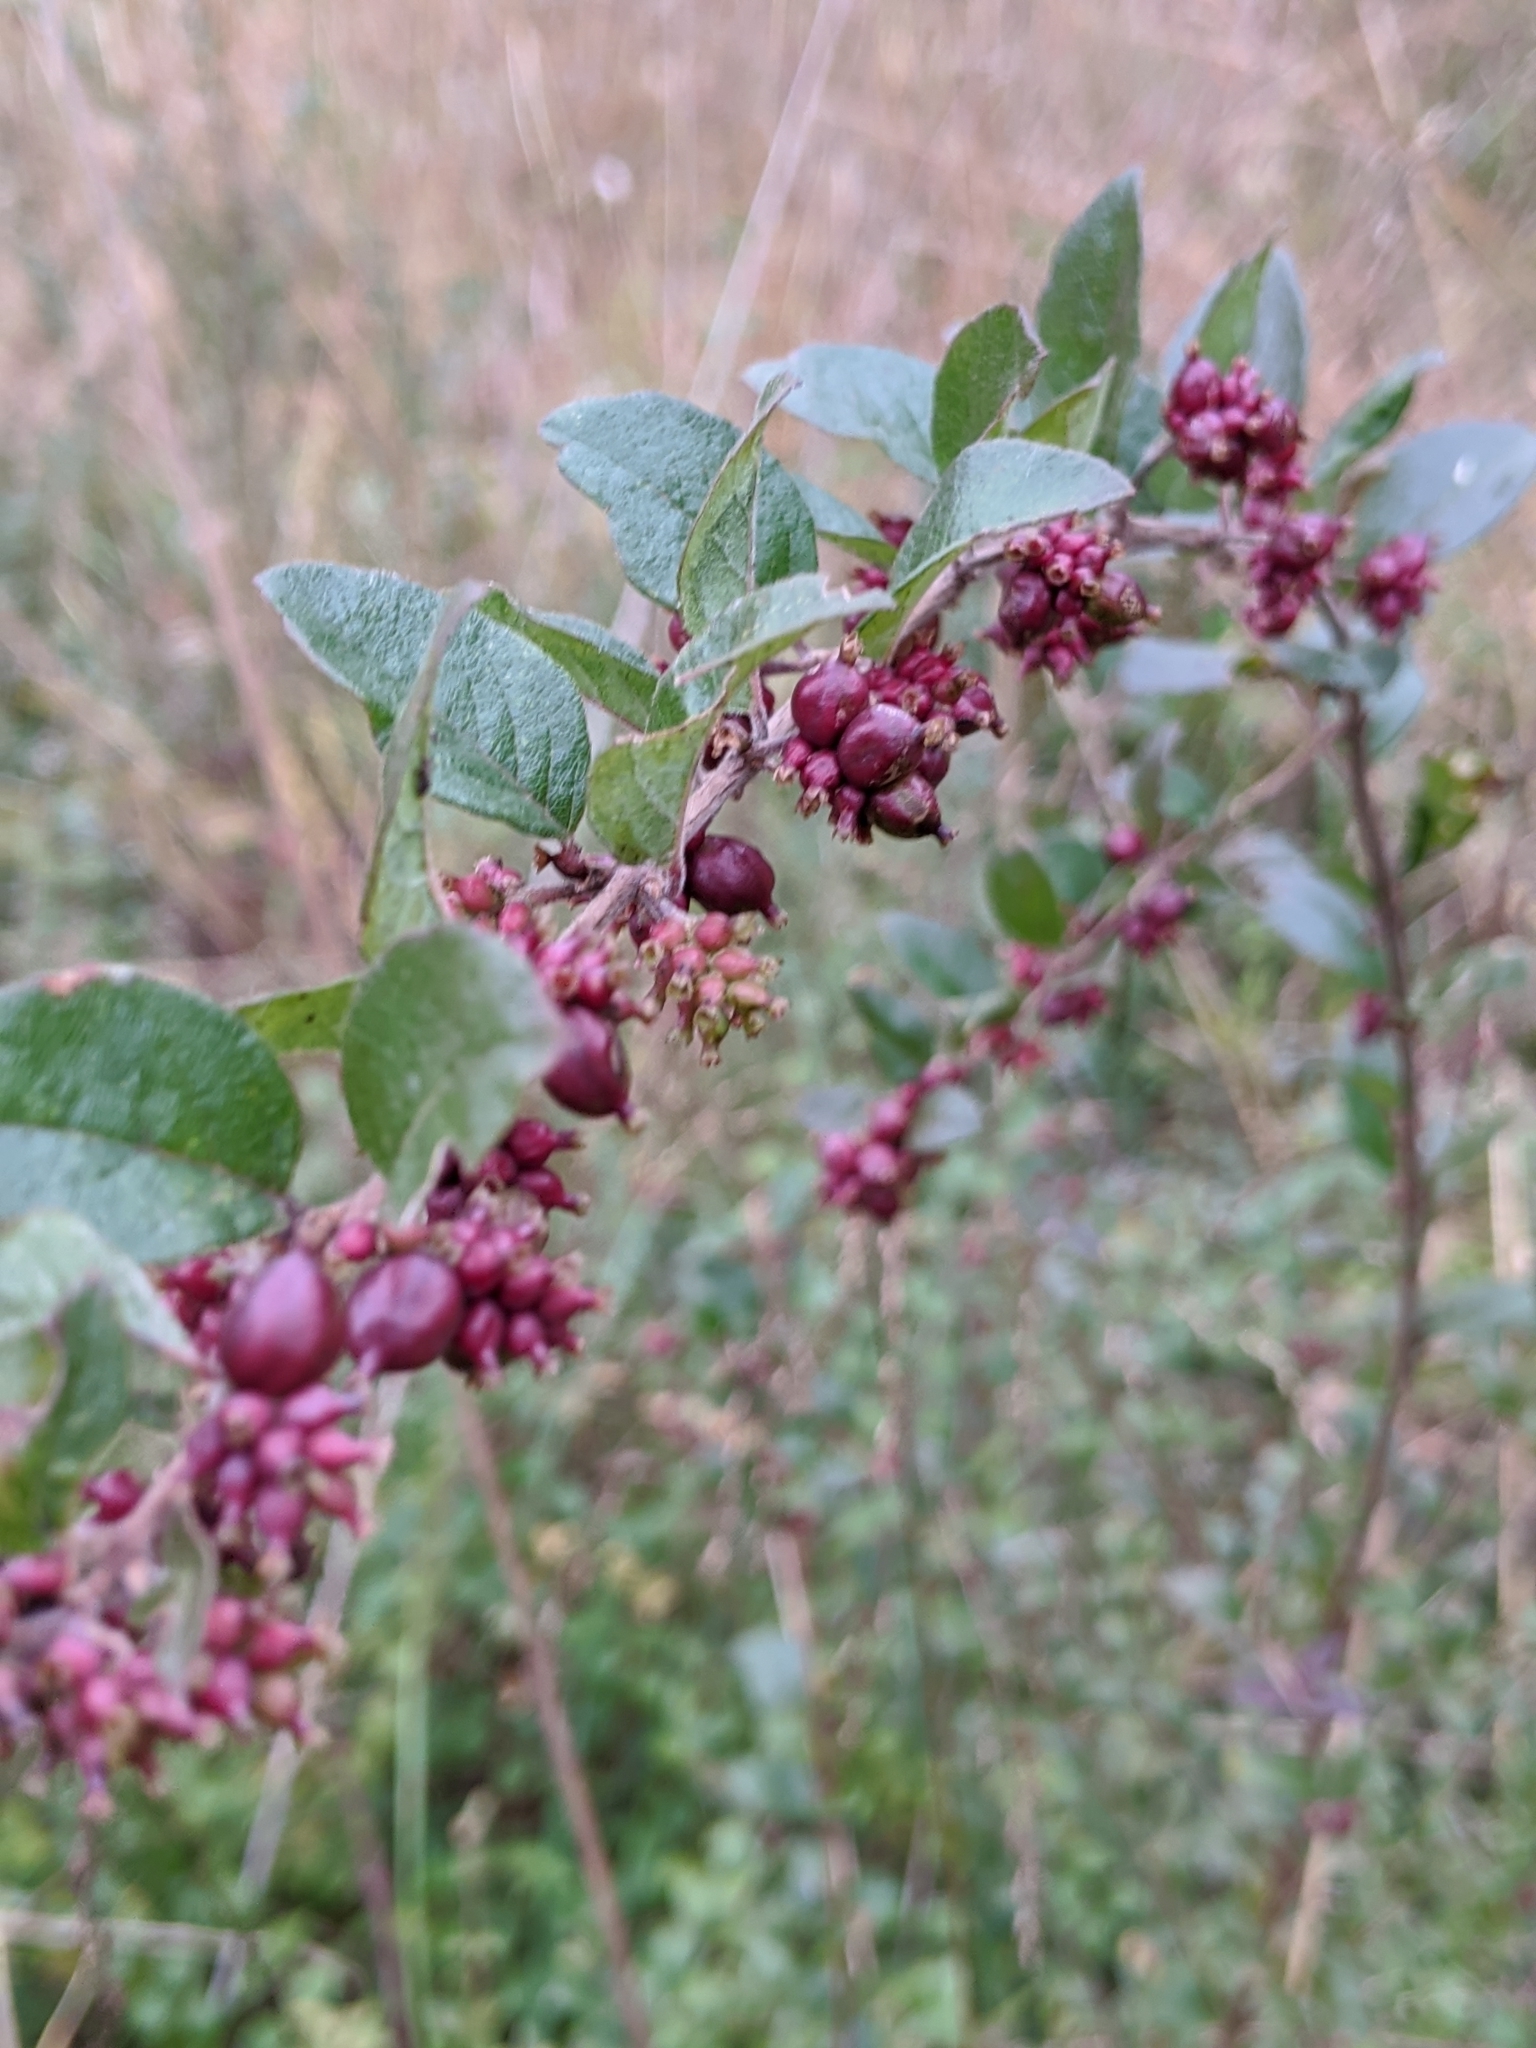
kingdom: Plantae
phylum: Tracheophyta
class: Magnoliopsida
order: Dipsacales
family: Caprifoliaceae
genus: Symphoricarpos
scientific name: Symphoricarpos orbiculatus
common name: Coralberry
